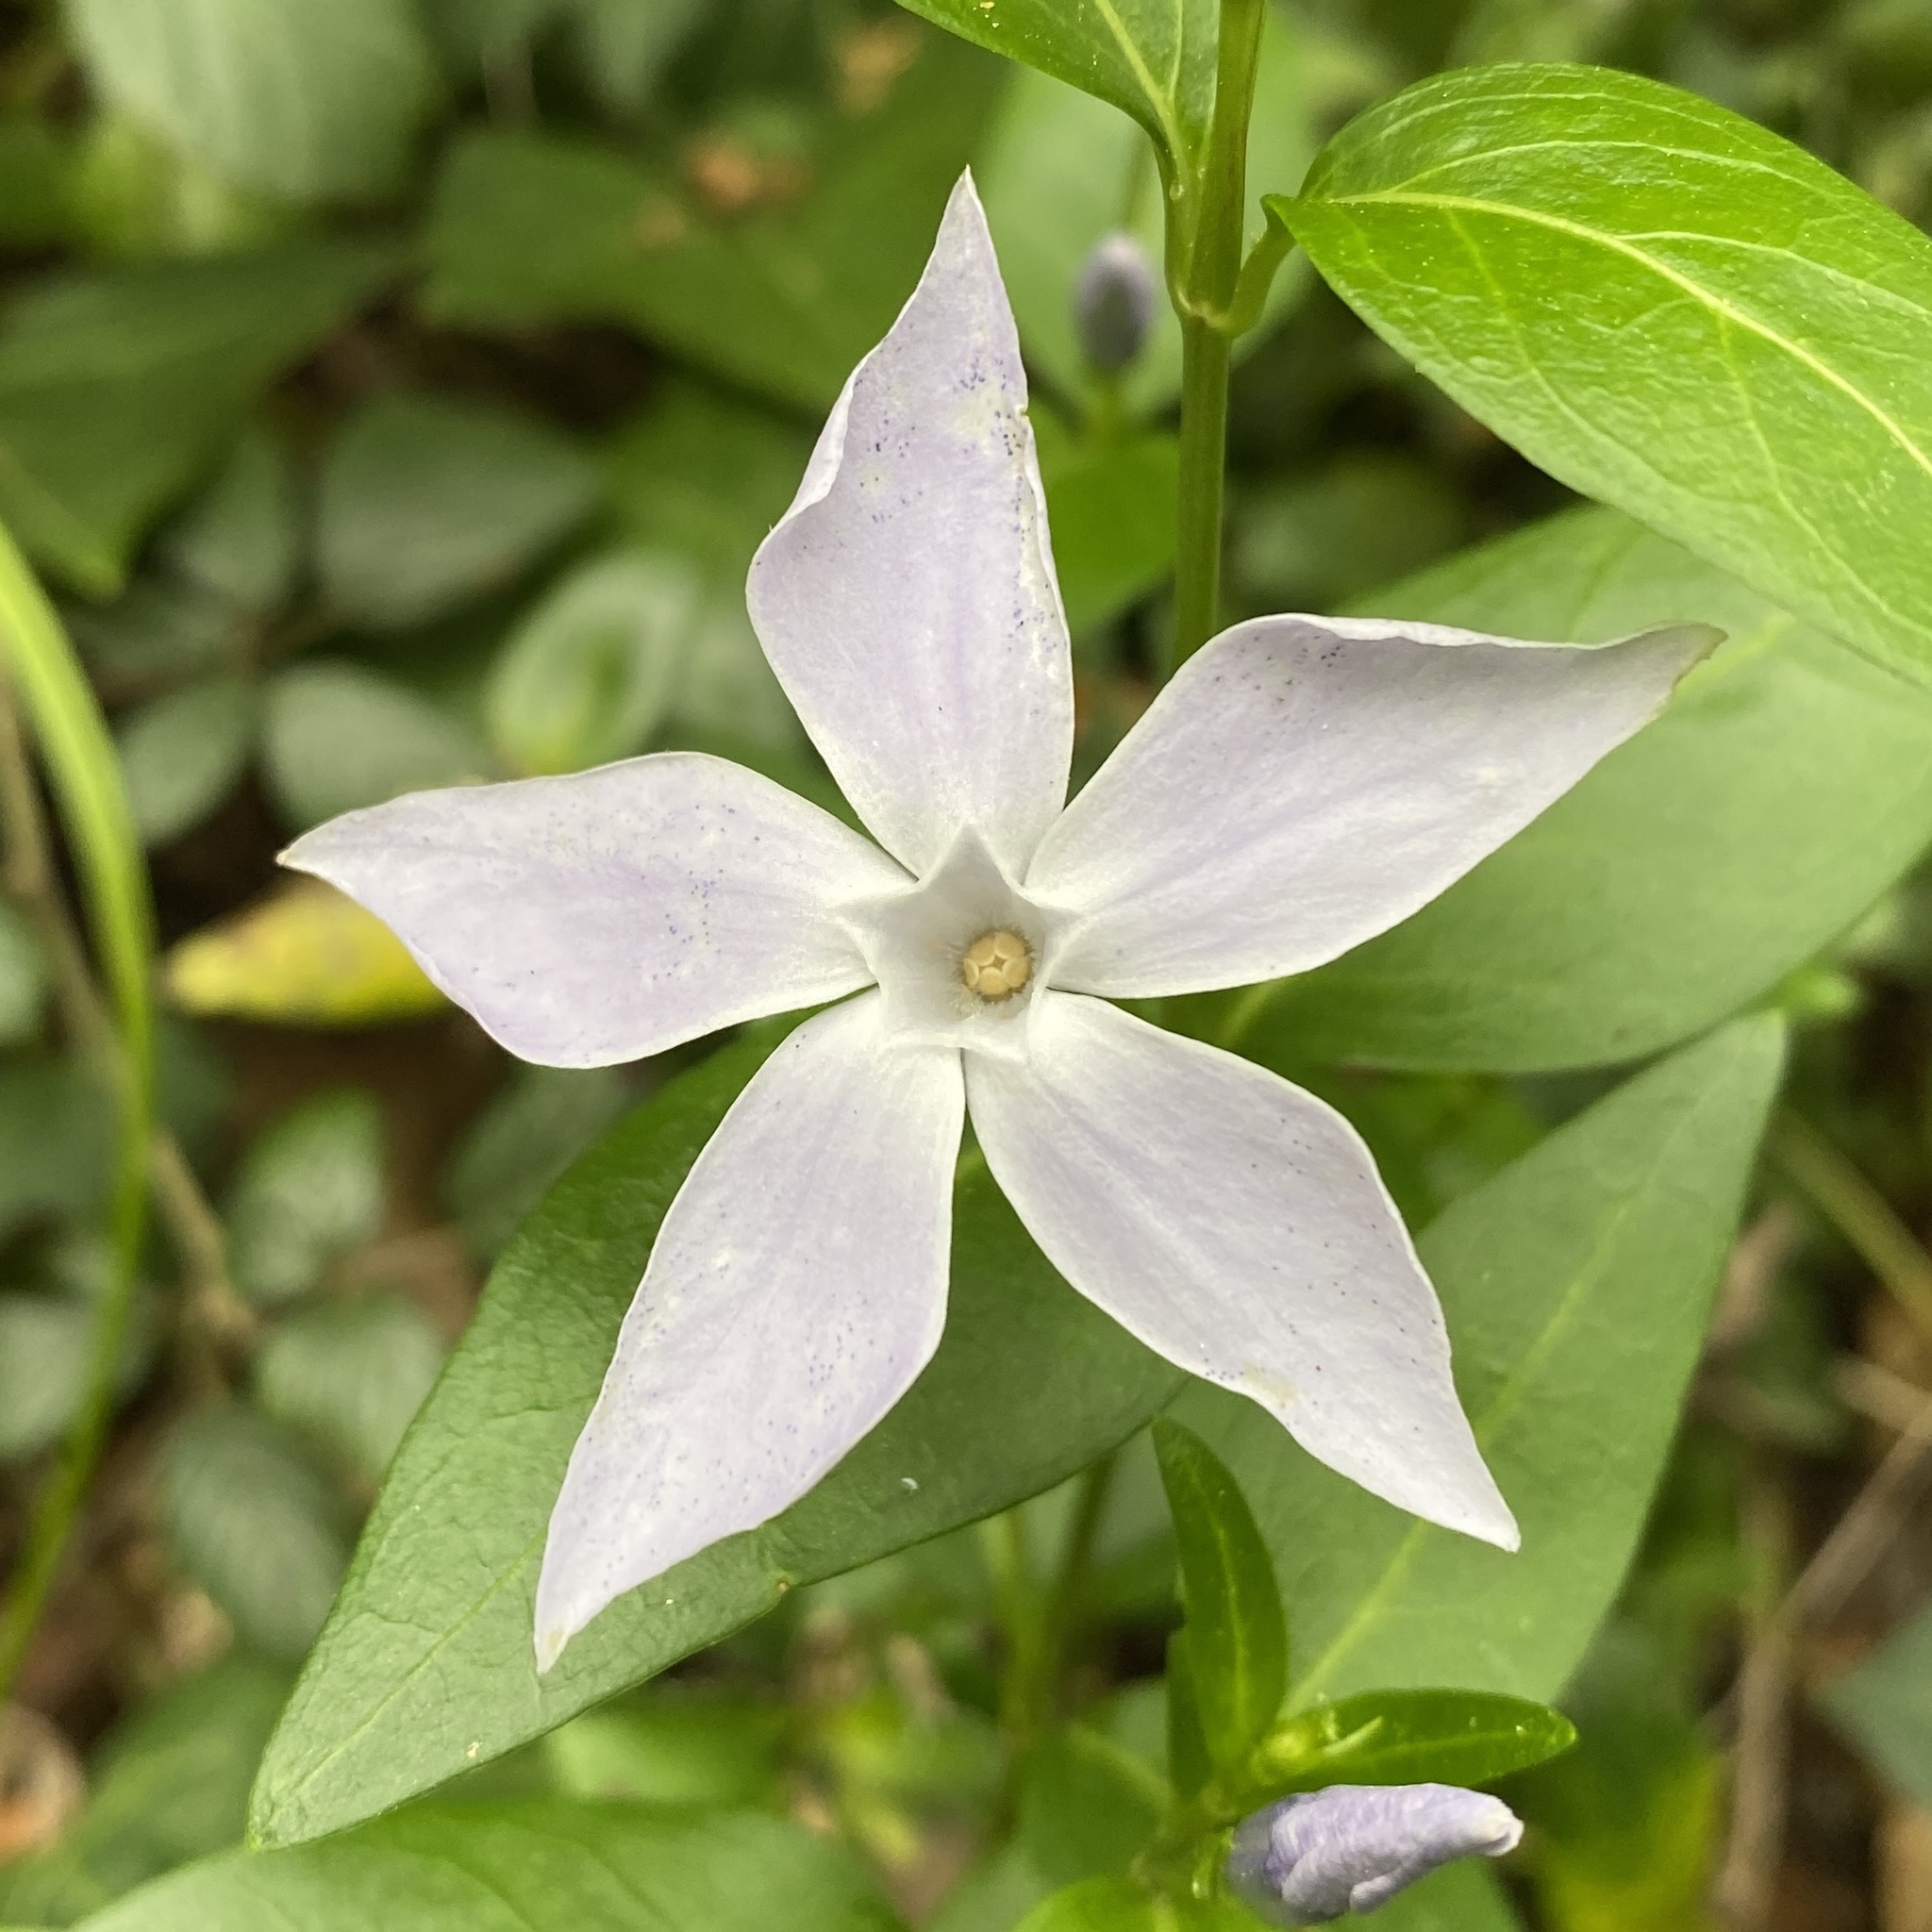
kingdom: Plantae
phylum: Tracheophyta
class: Magnoliopsida
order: Gentianales
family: Apocynaceae
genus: Vinca
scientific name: Vinca difformis
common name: Intermediate periwinkle
